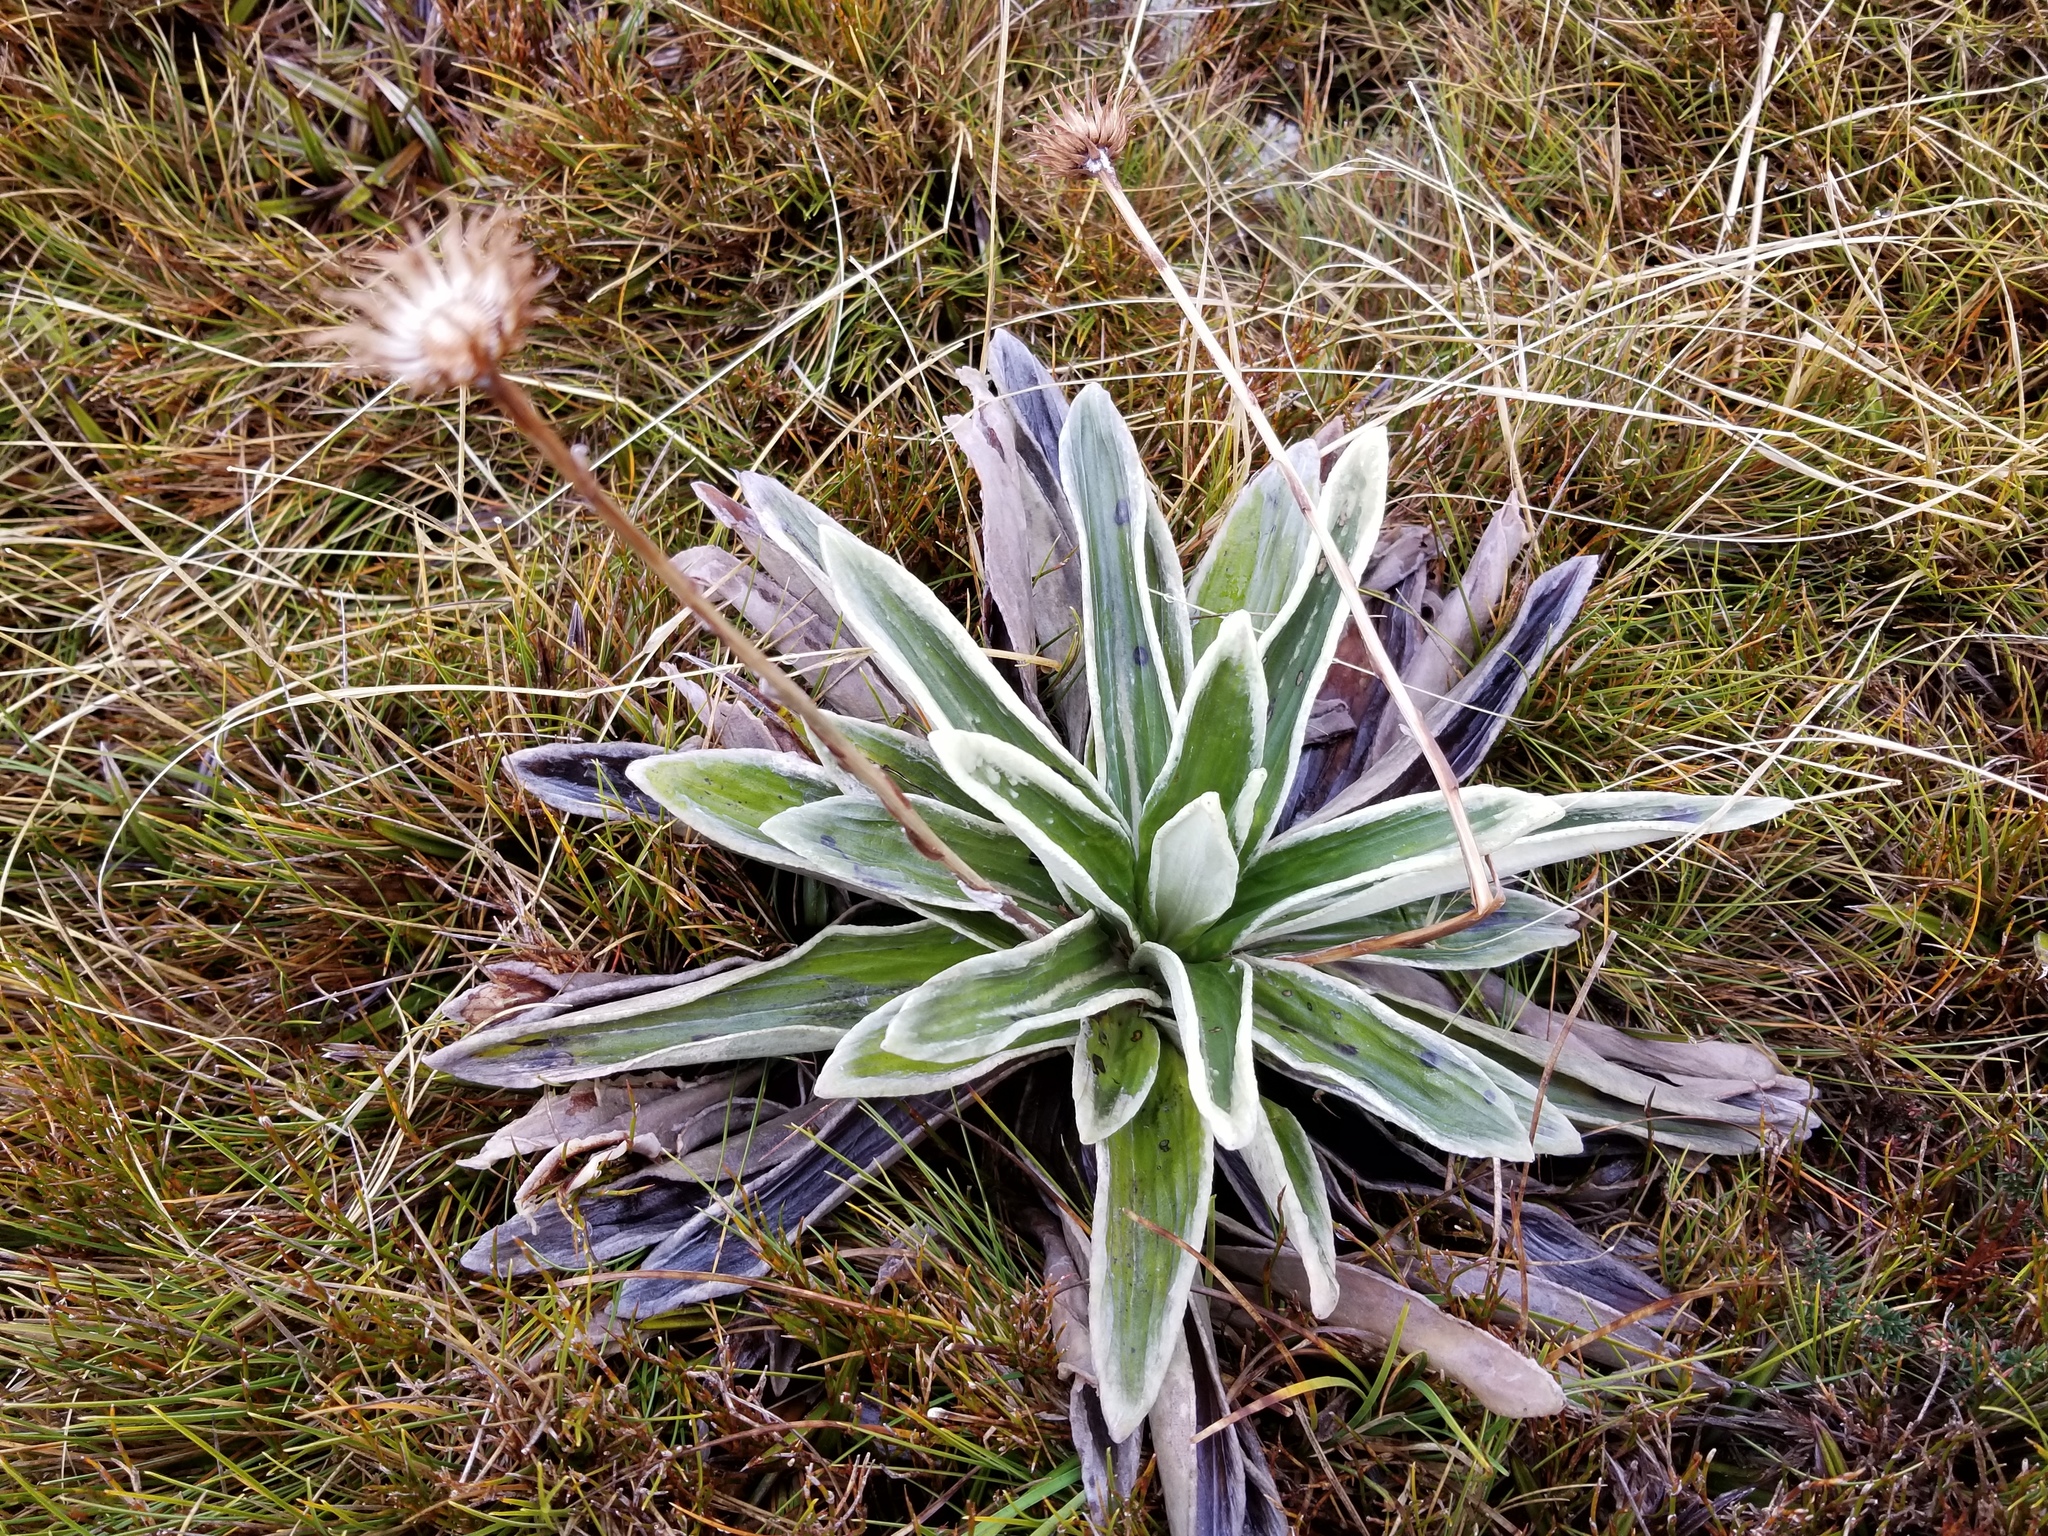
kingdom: Plantae
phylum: Tracheophyta
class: Magnoliopsida
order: Asterales
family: Asteraceae
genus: Celmisia
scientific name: Celmisia semicordata
